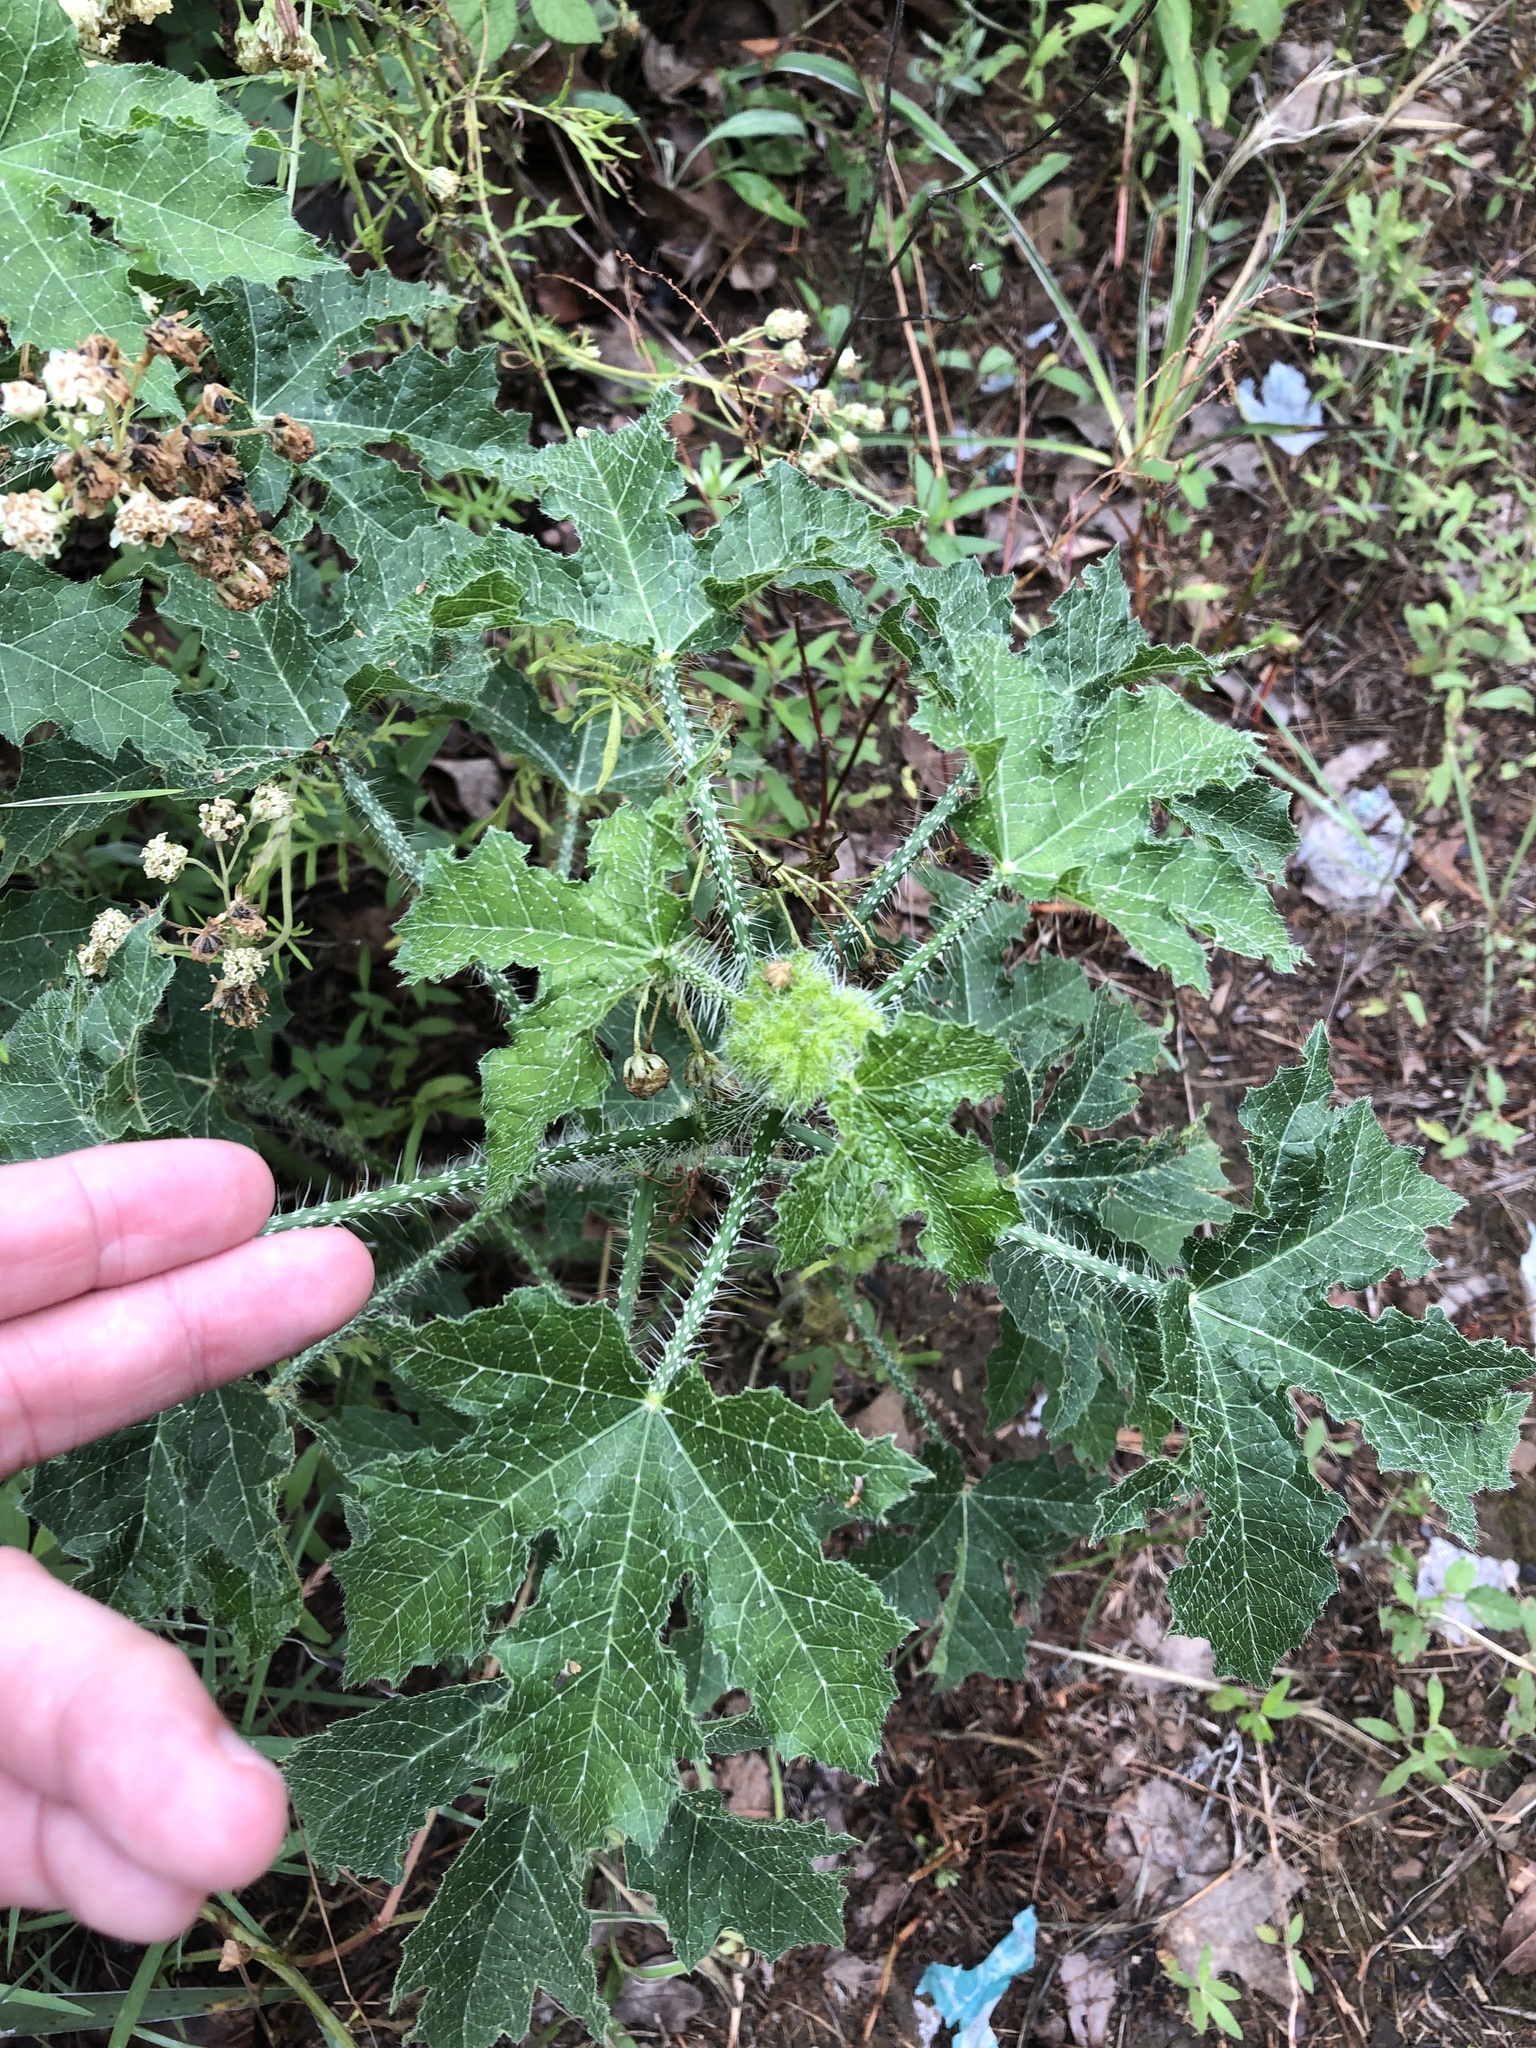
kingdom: Plantae
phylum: Tracheophyta
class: Magnoliopsida
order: Malpighiales
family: Euphorbiaceae
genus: Cnidoscolus
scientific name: Cnidoscolus texanus
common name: Texas bull-nettle
